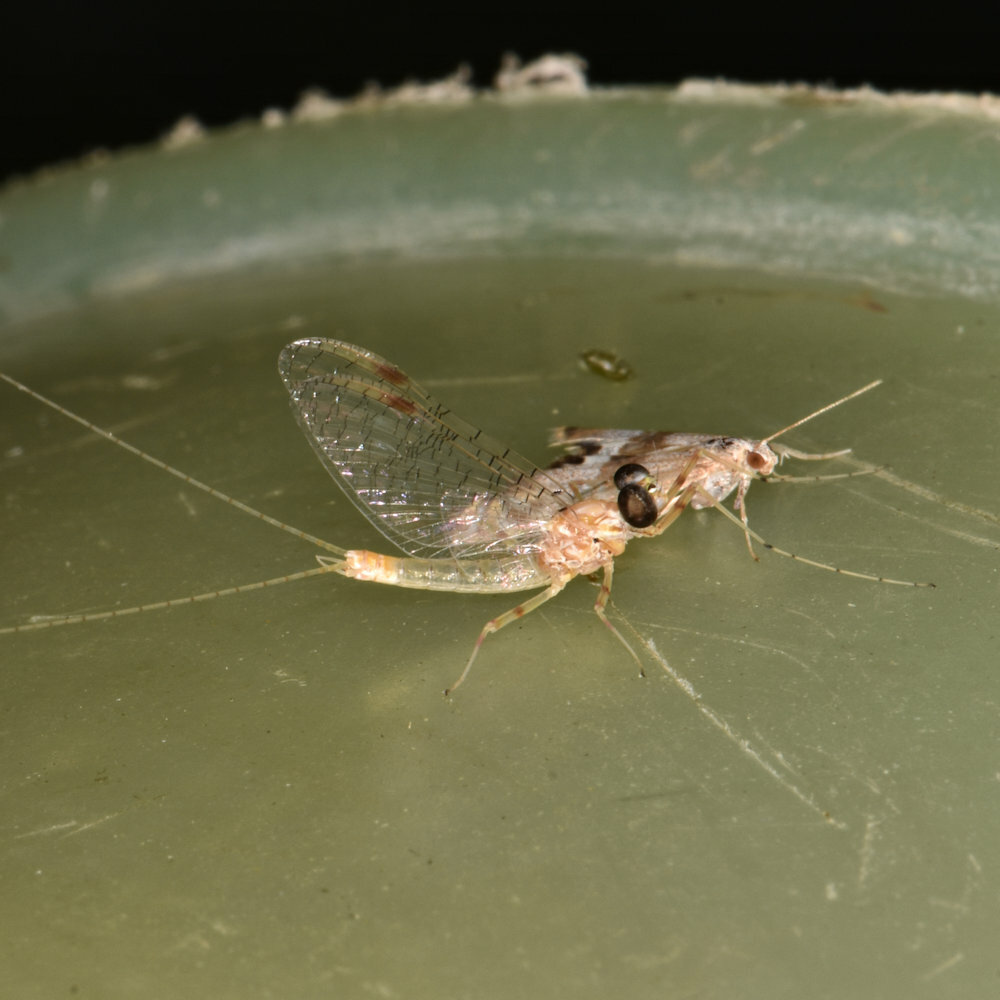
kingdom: Animalia
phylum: Arthropoda
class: Insecta
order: Ephemeroptera
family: Heptageniidae
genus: Stenonema
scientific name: Stenonema femoratum
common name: Dark cahill
